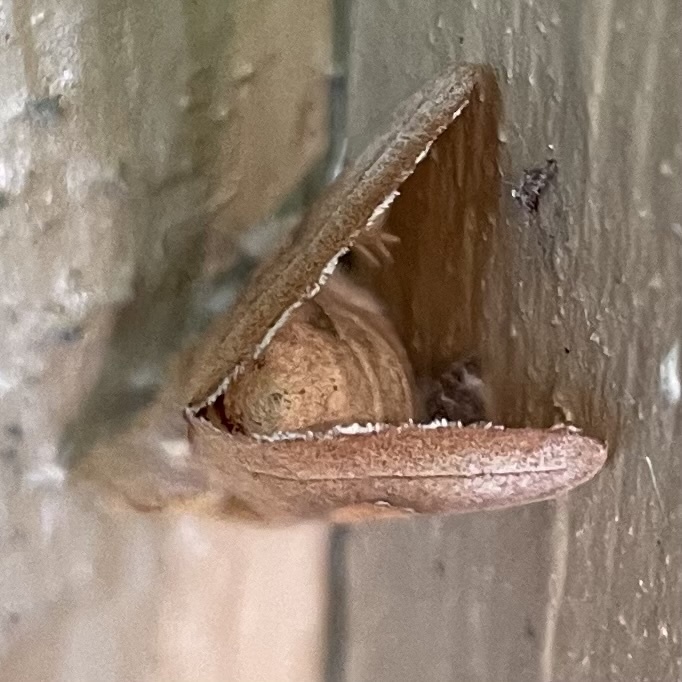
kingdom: Animalia
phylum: Arthropoda
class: Insecta
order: Lepidoptera
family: Notodontidae
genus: Nadata
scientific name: Nadata gibbosa
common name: White-dotted prominent
